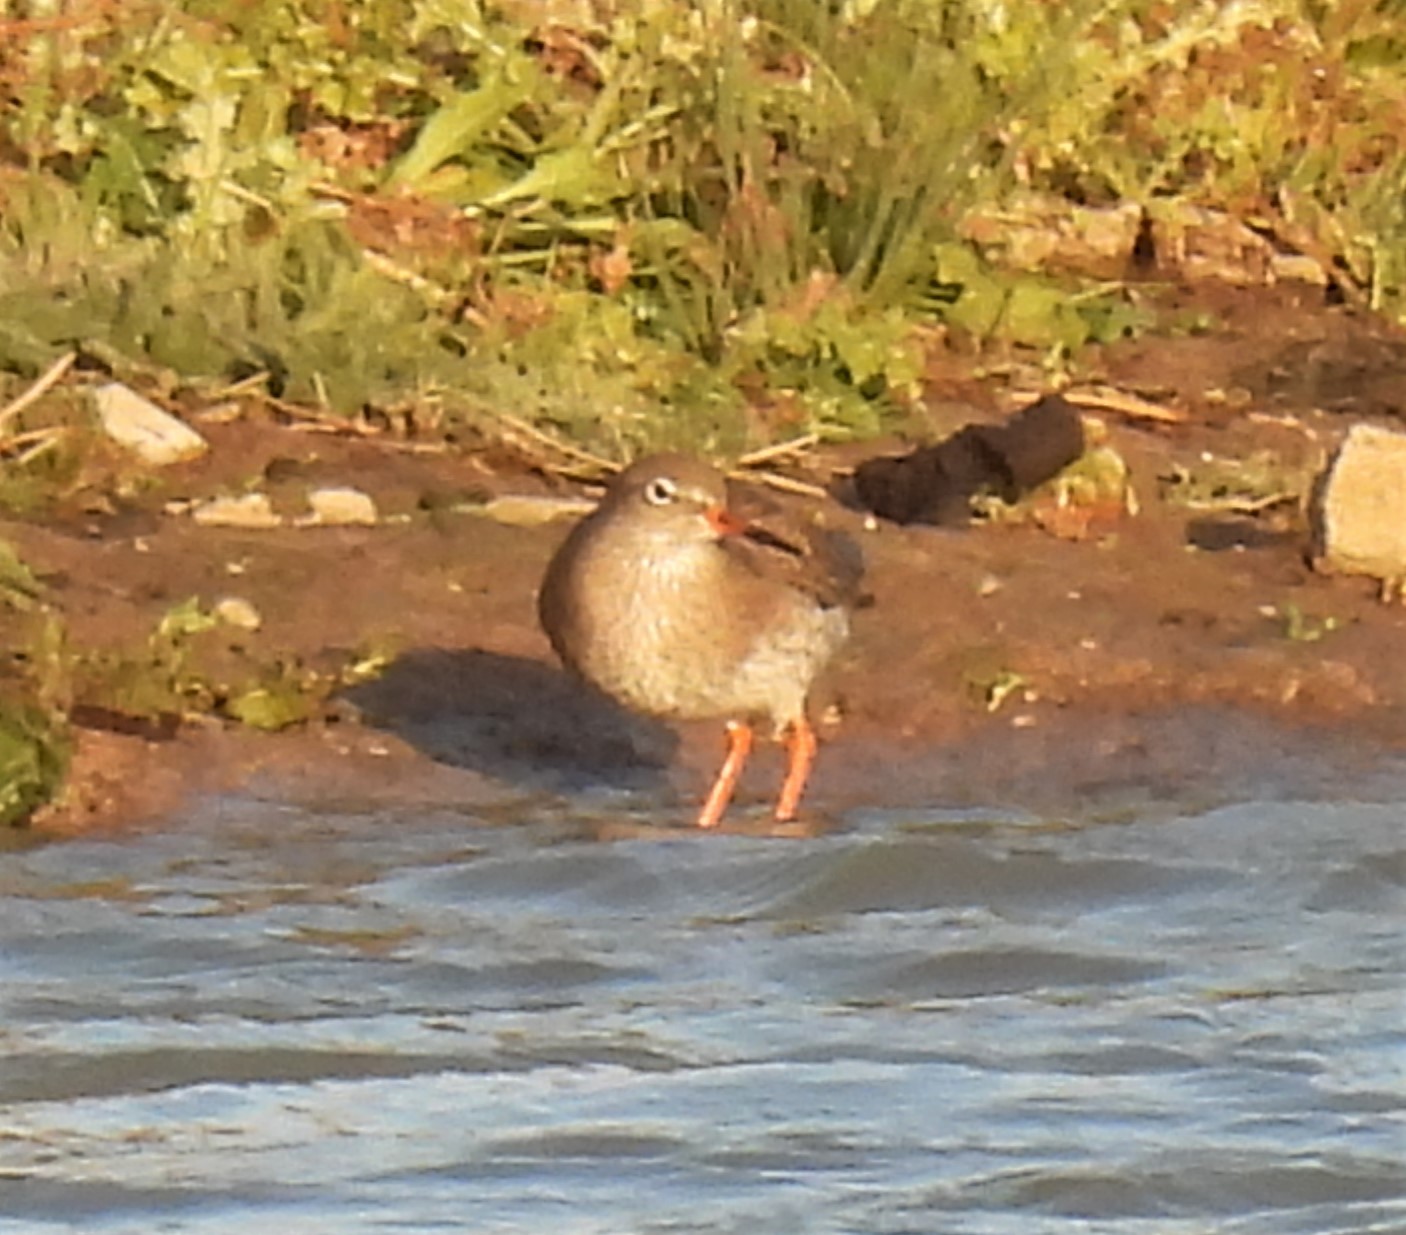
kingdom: Animalia
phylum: Chordata
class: Aves
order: Charadriiformes
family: Scolopacidae
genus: Tringa
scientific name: Tringa totanus
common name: Common redshank
